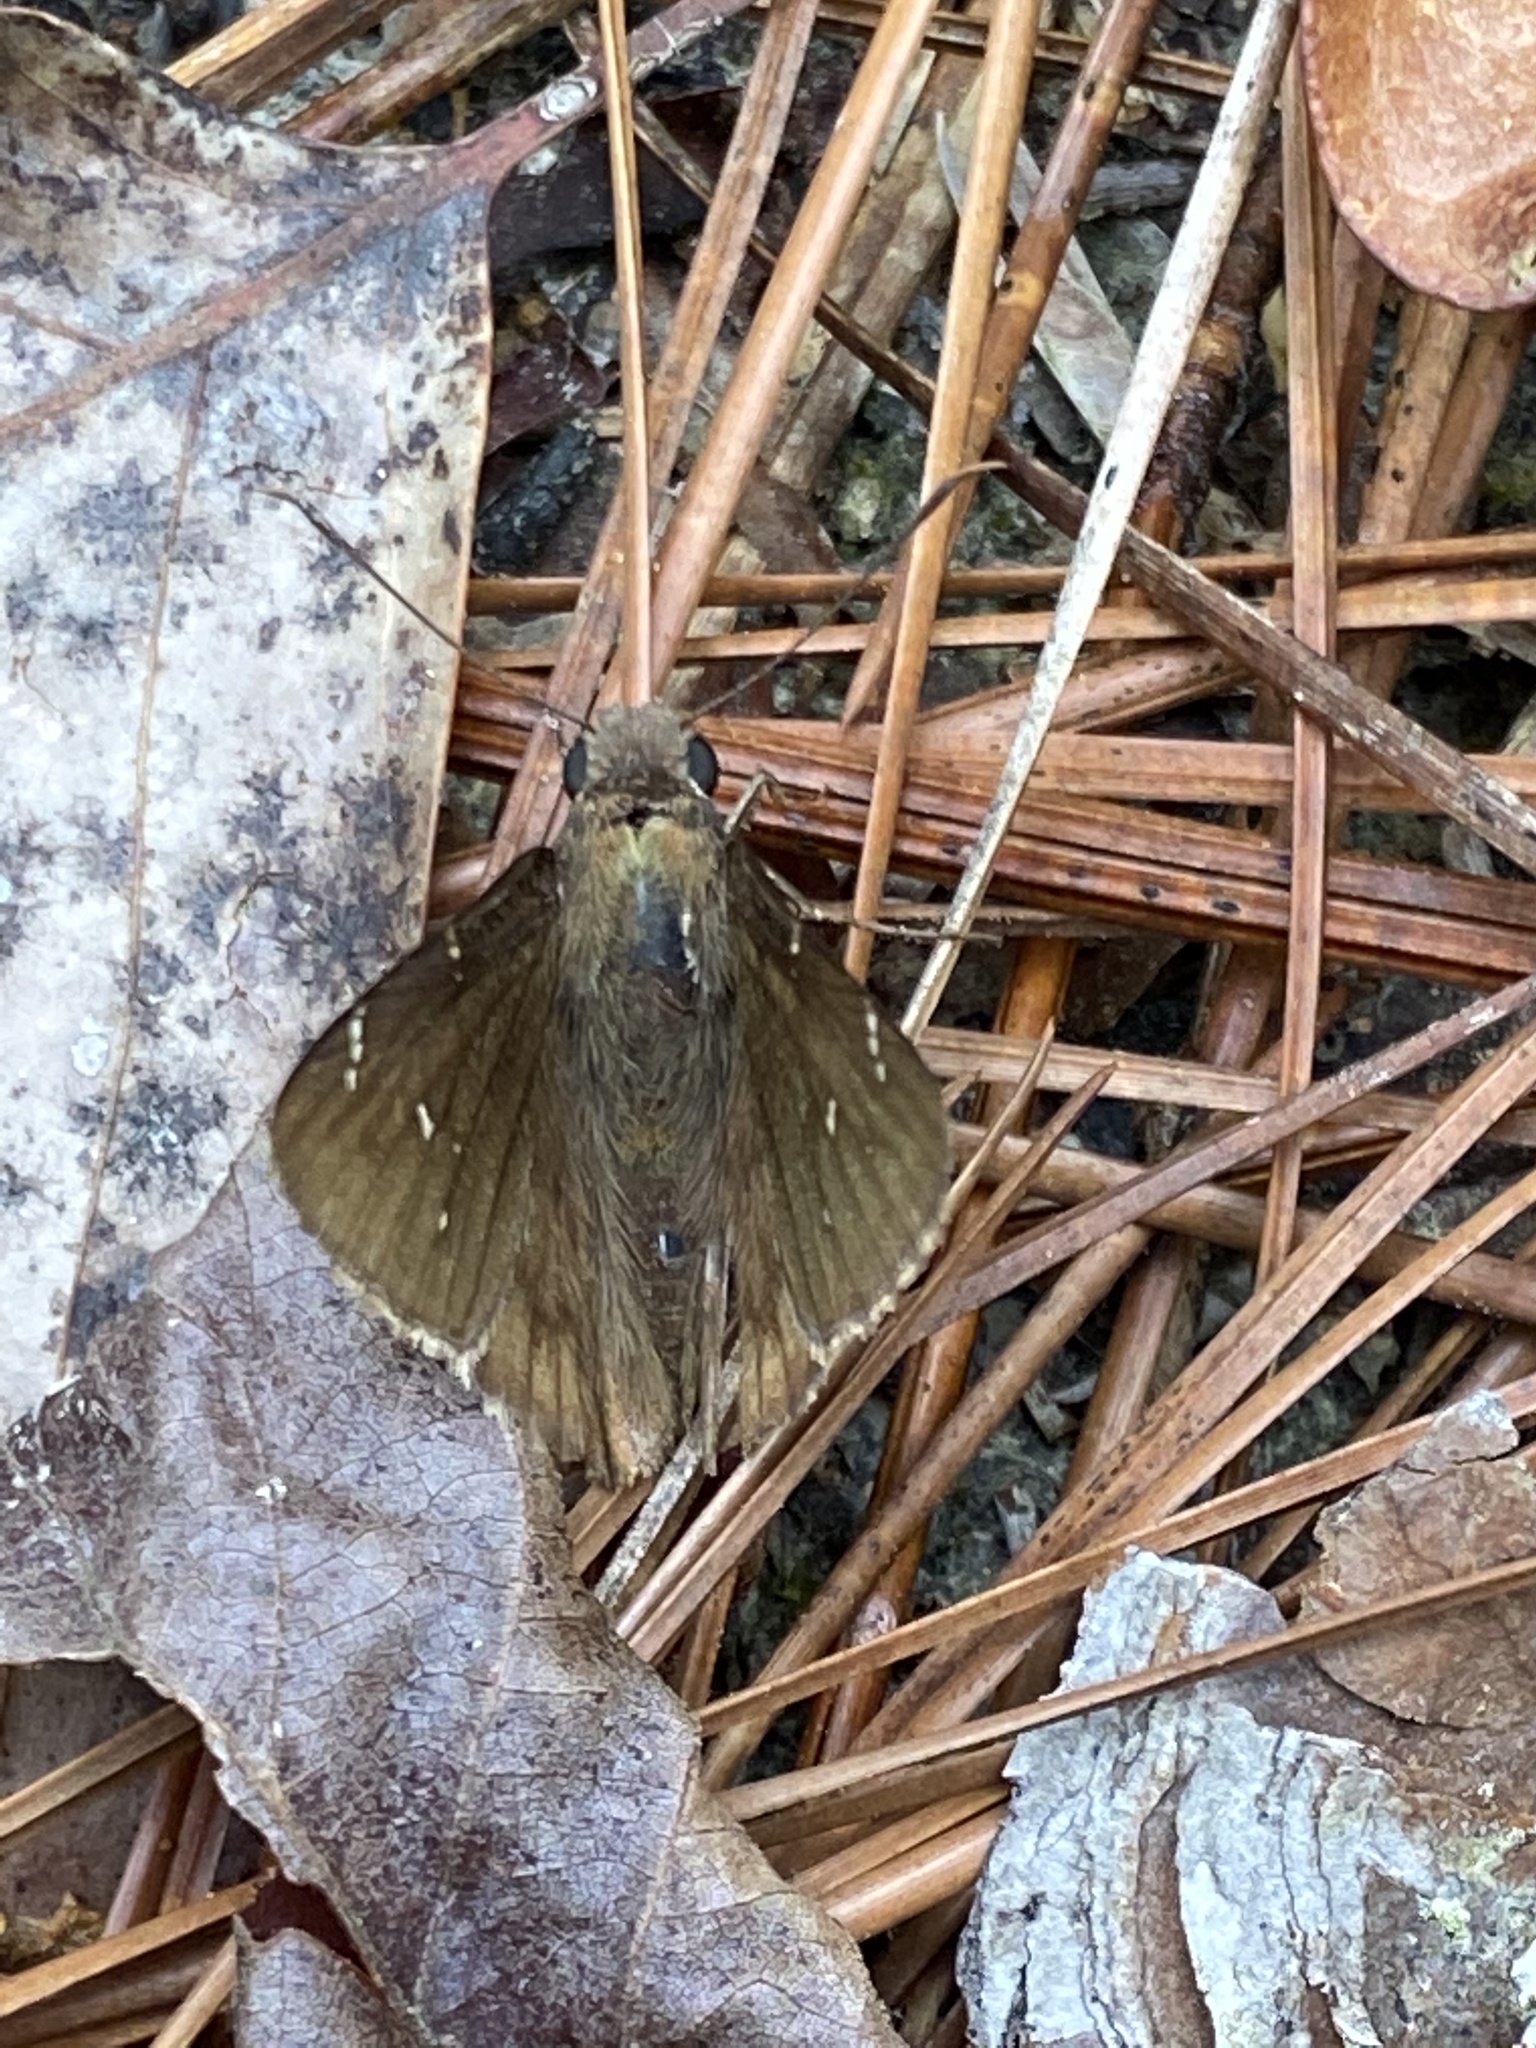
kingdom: Animalia
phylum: Arthropoda
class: Insecta
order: Lepidoptera
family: Hesperiidae
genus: Thorybes
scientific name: Thorybes pylades
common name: Northern cloudywing
